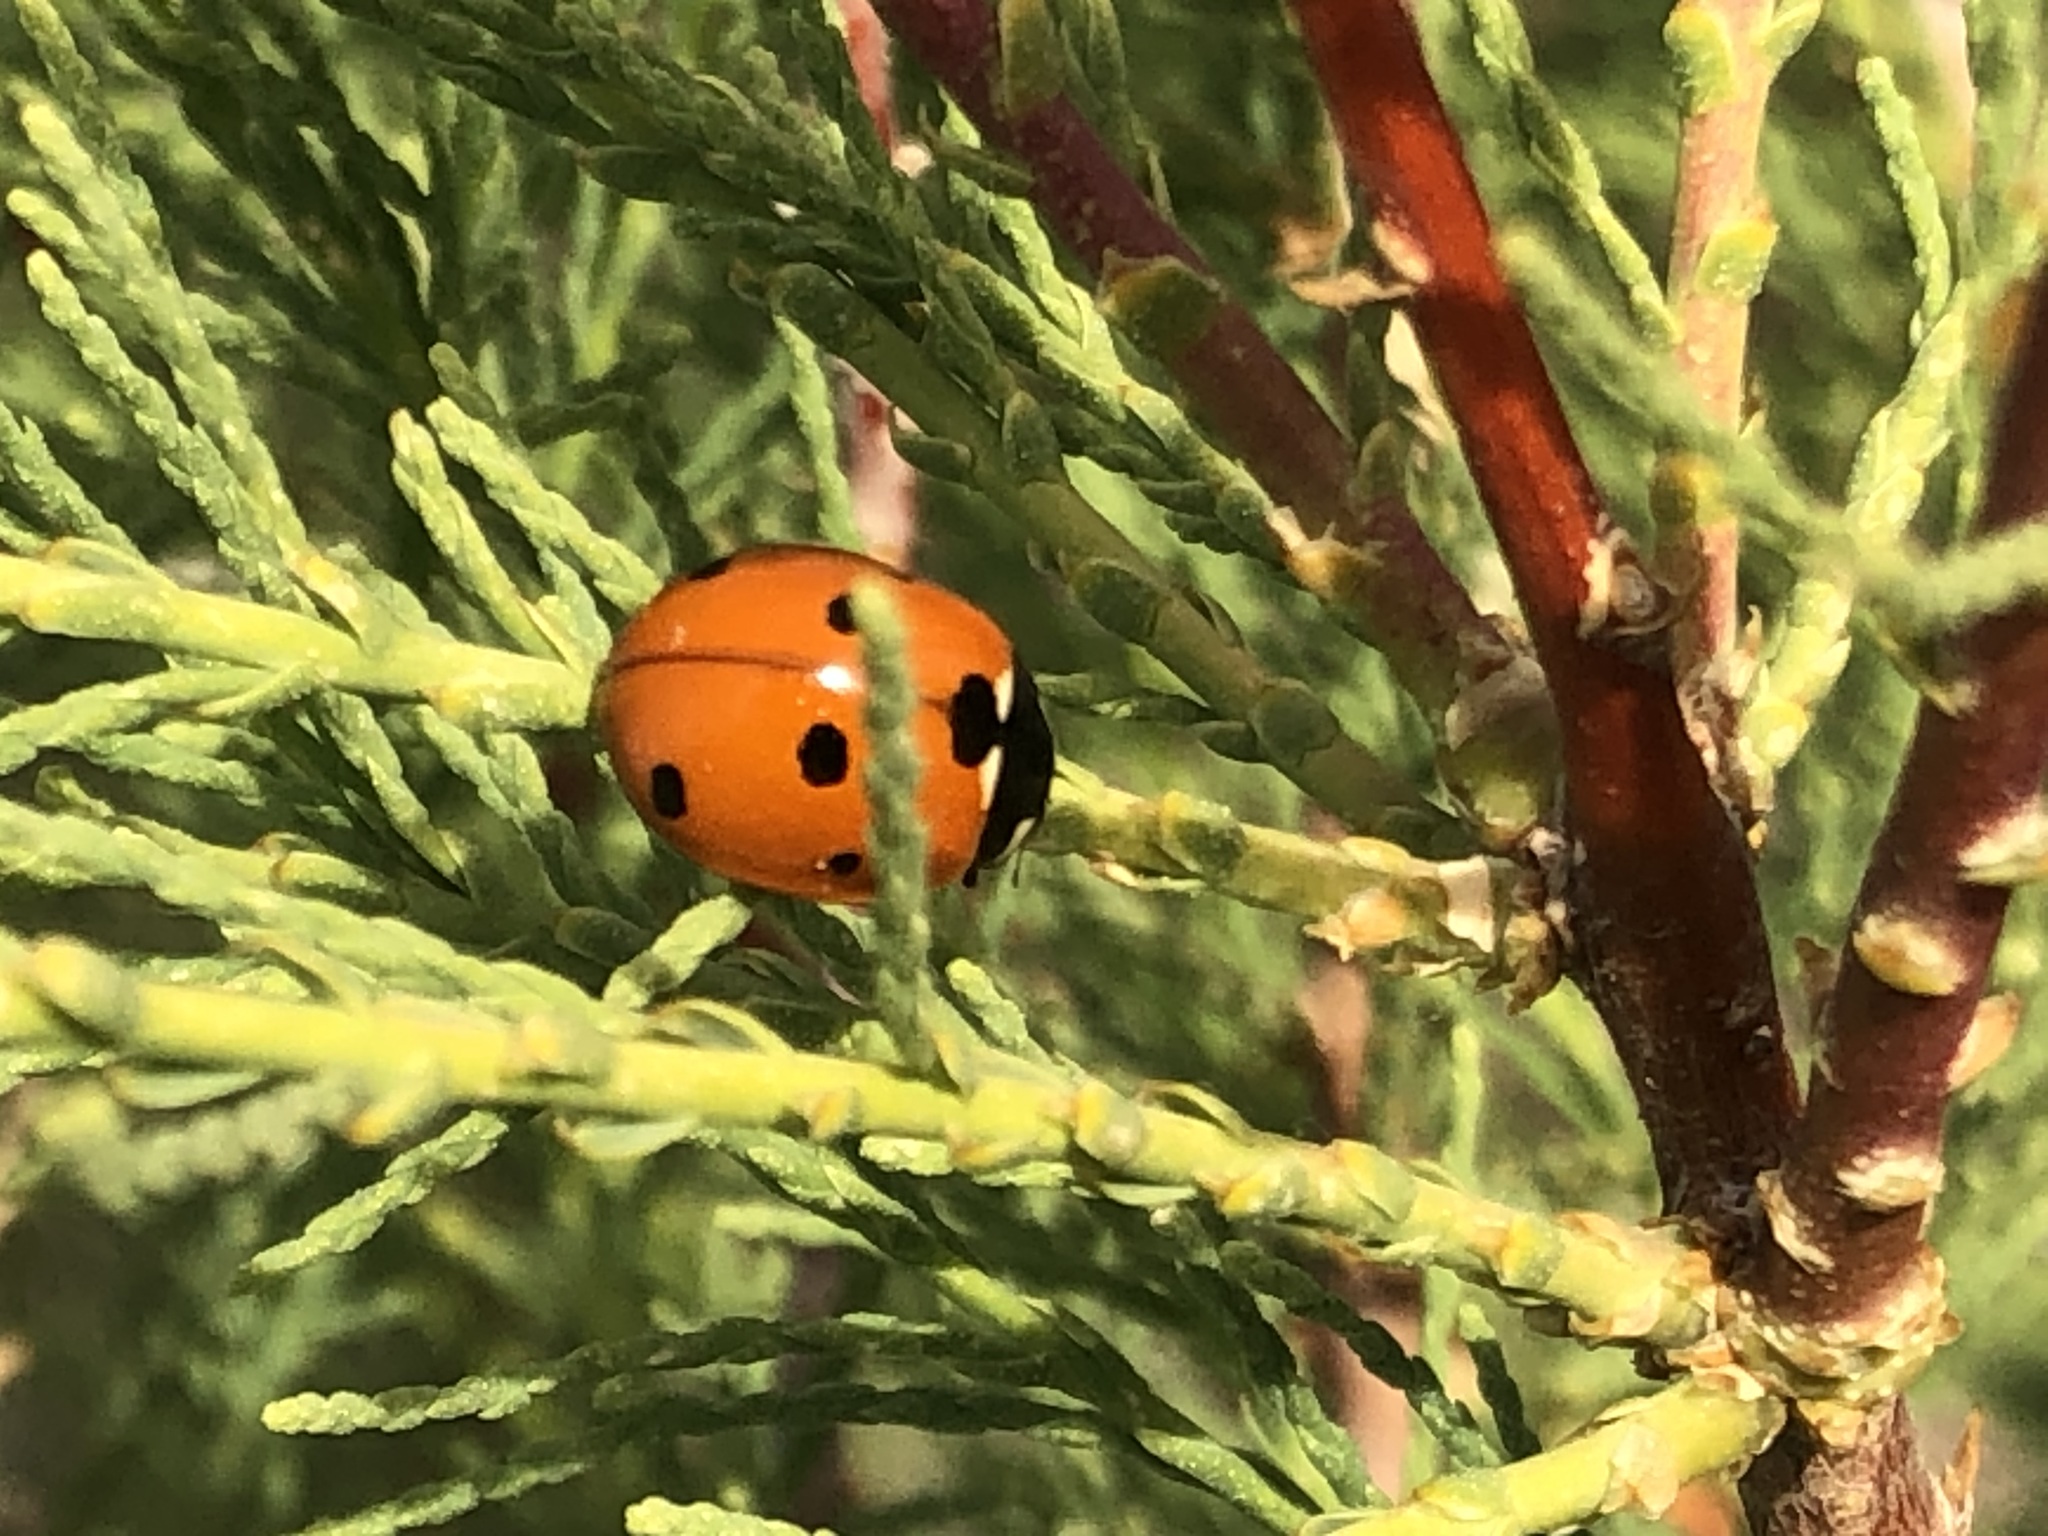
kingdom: Animalia
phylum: Arthropoda
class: Insecta
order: Coleoptera
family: Coccinellidae
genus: Coccinella
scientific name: Coccinella septempunctata
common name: Sevenspotted lady beetle
